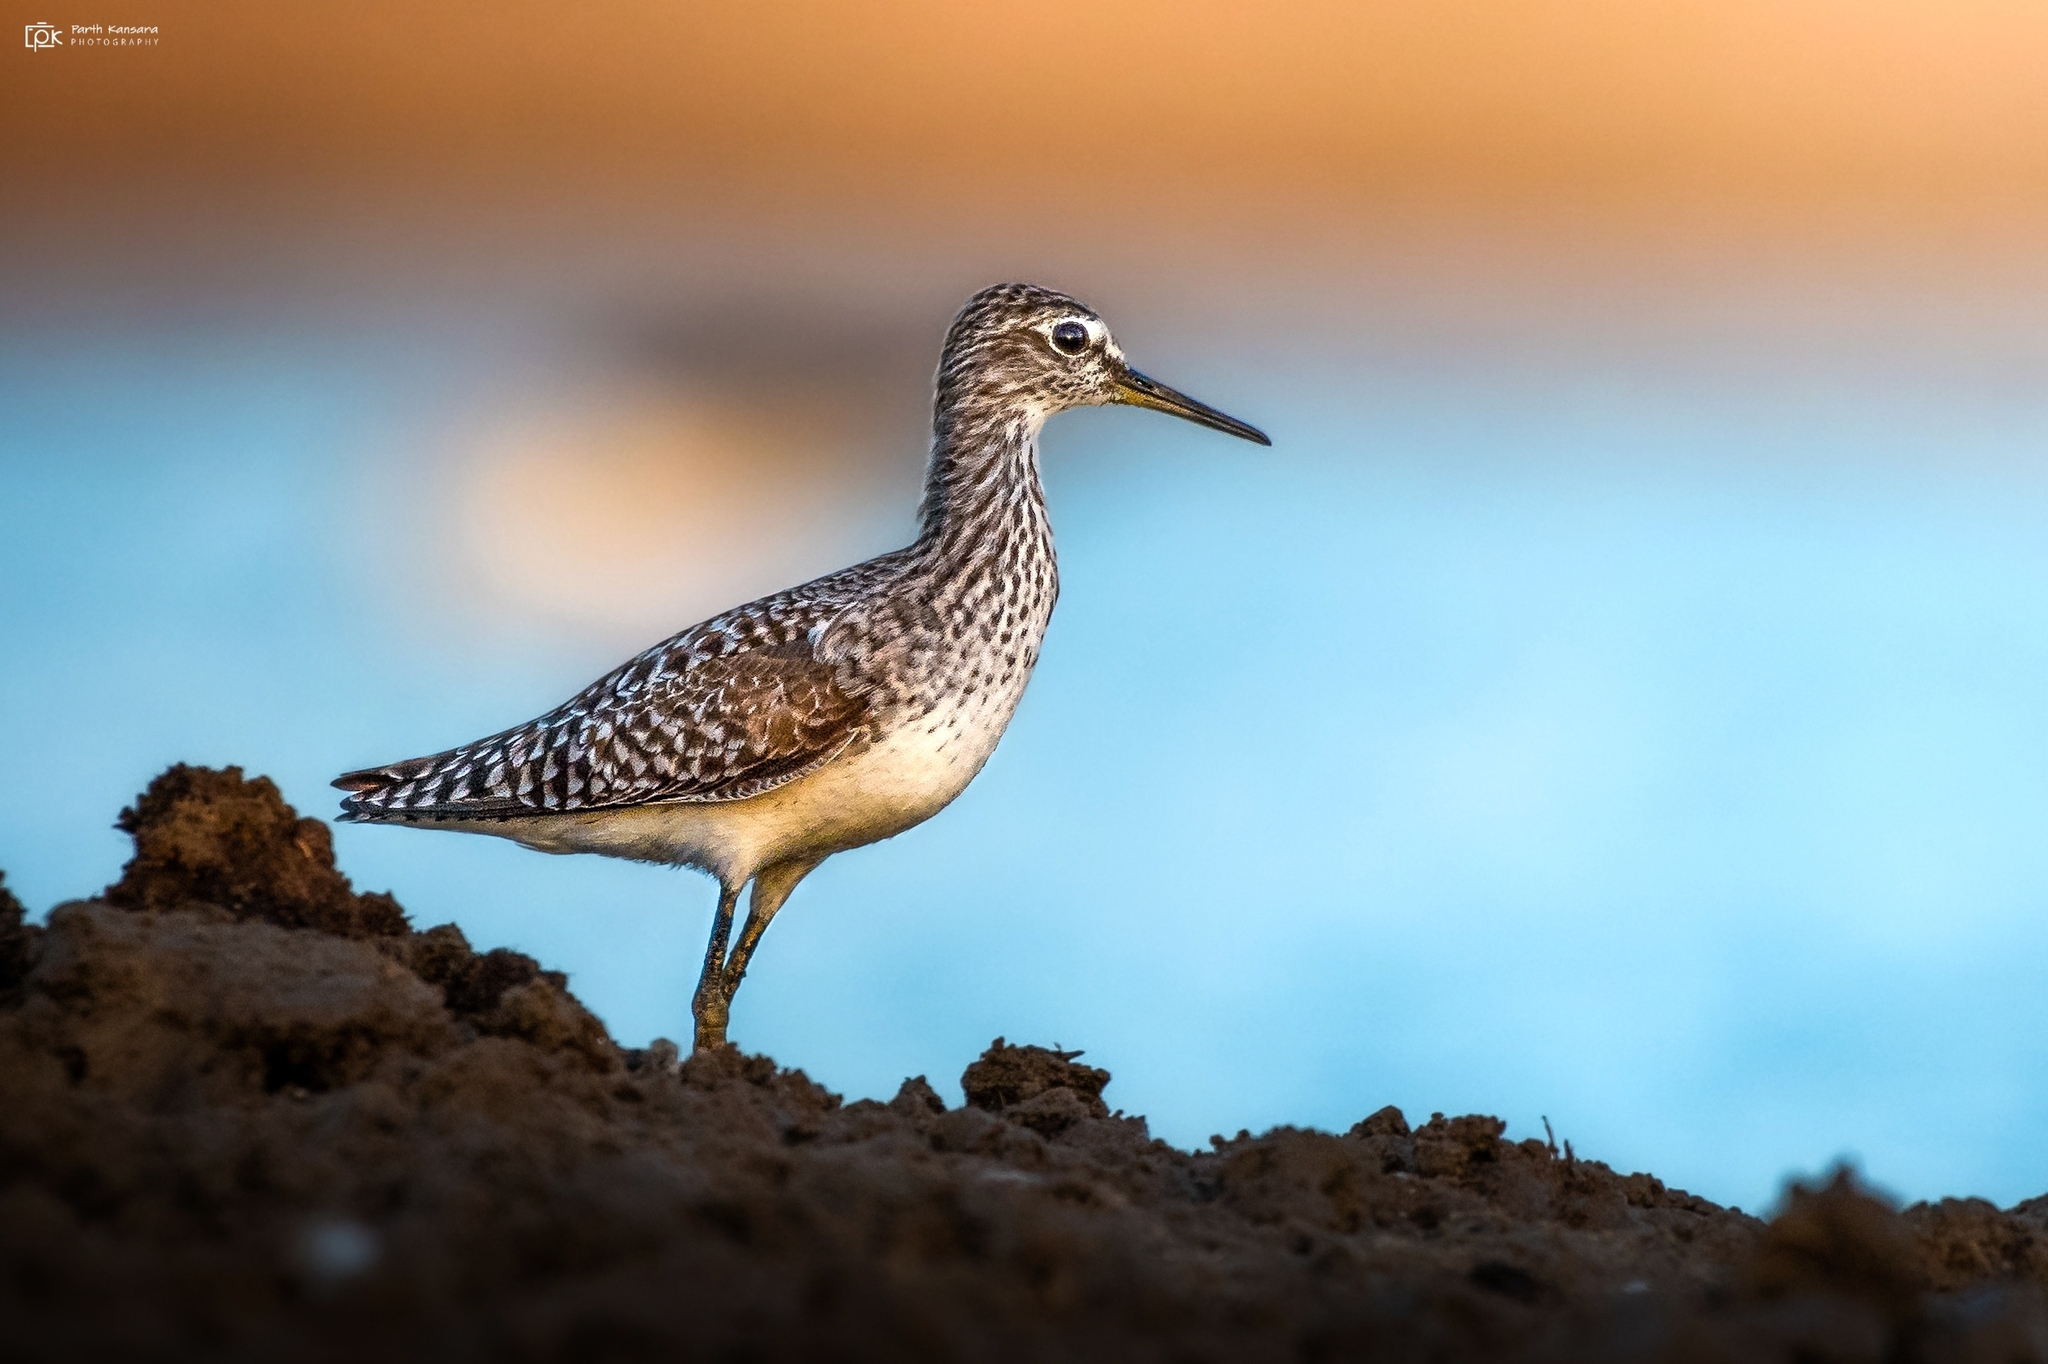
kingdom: Animalia
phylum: Chordata
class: Aves
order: Charadriiformes
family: Scolopacidae
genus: Tringa
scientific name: Tringa glareola
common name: Wood sandpiper
